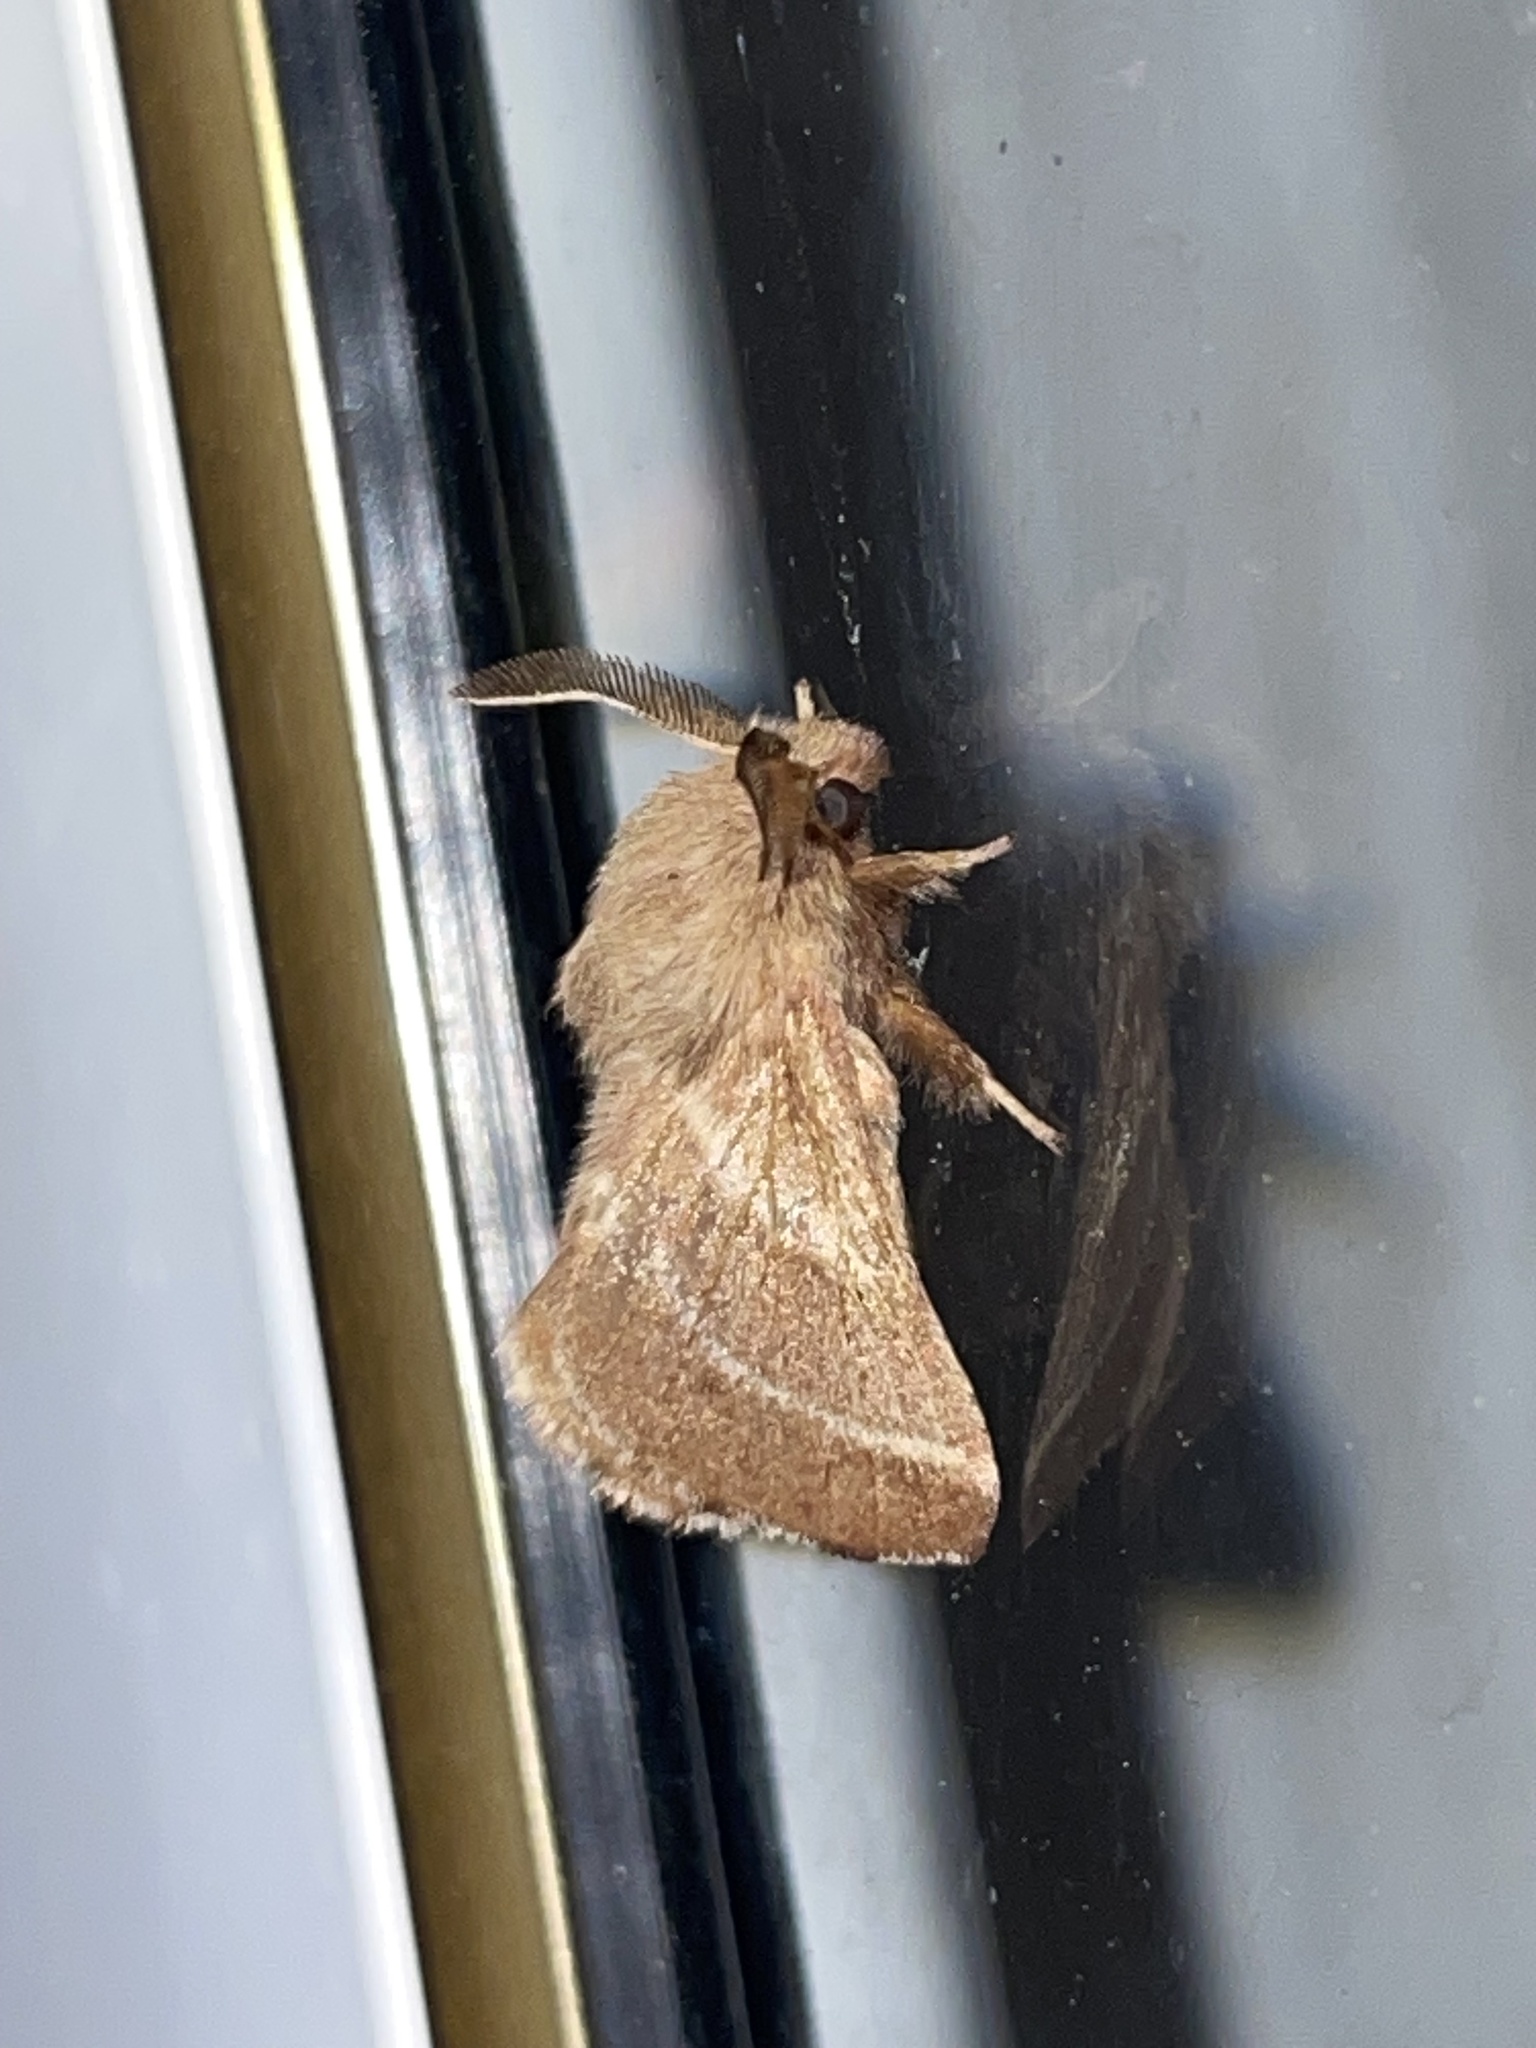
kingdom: Animalia
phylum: Arthropoda
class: Insecta
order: Lepidoptera
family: Lasiocampidae
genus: Malacosoma
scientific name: Malacosoma americana
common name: Eastern tent caterpillar moth
